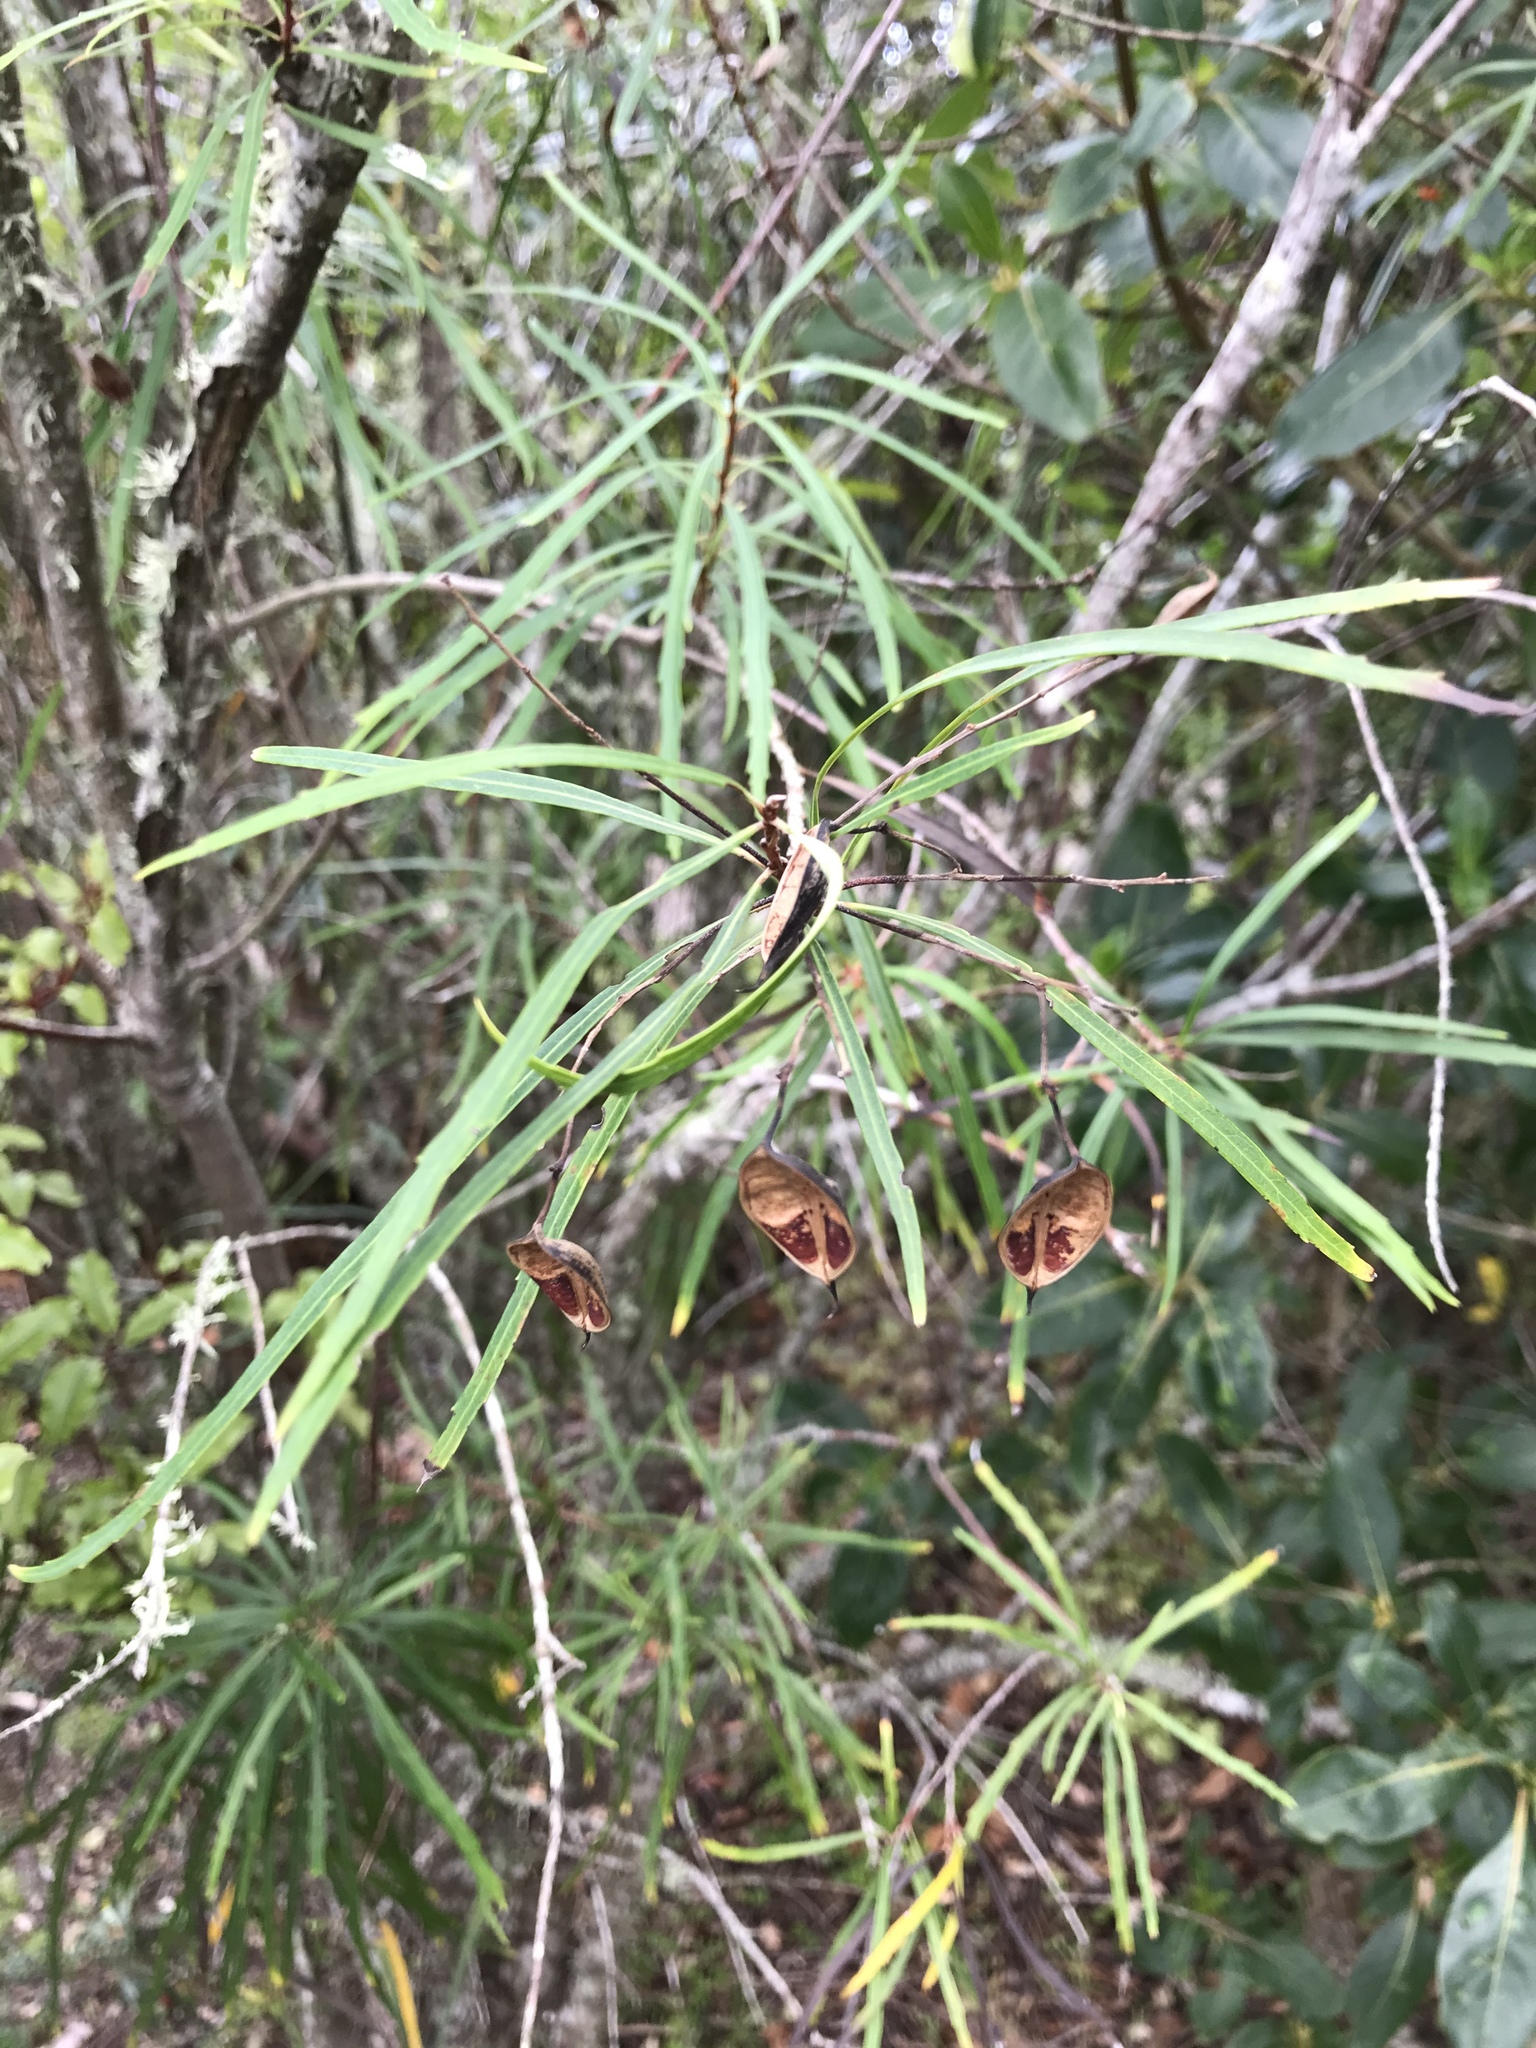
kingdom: Plantae
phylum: Tracheophyta
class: Magnoliopsida
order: Proteales
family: Proteaceae
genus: Lomatia
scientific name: Lomatia myricoides
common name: Longleaf lomatia
